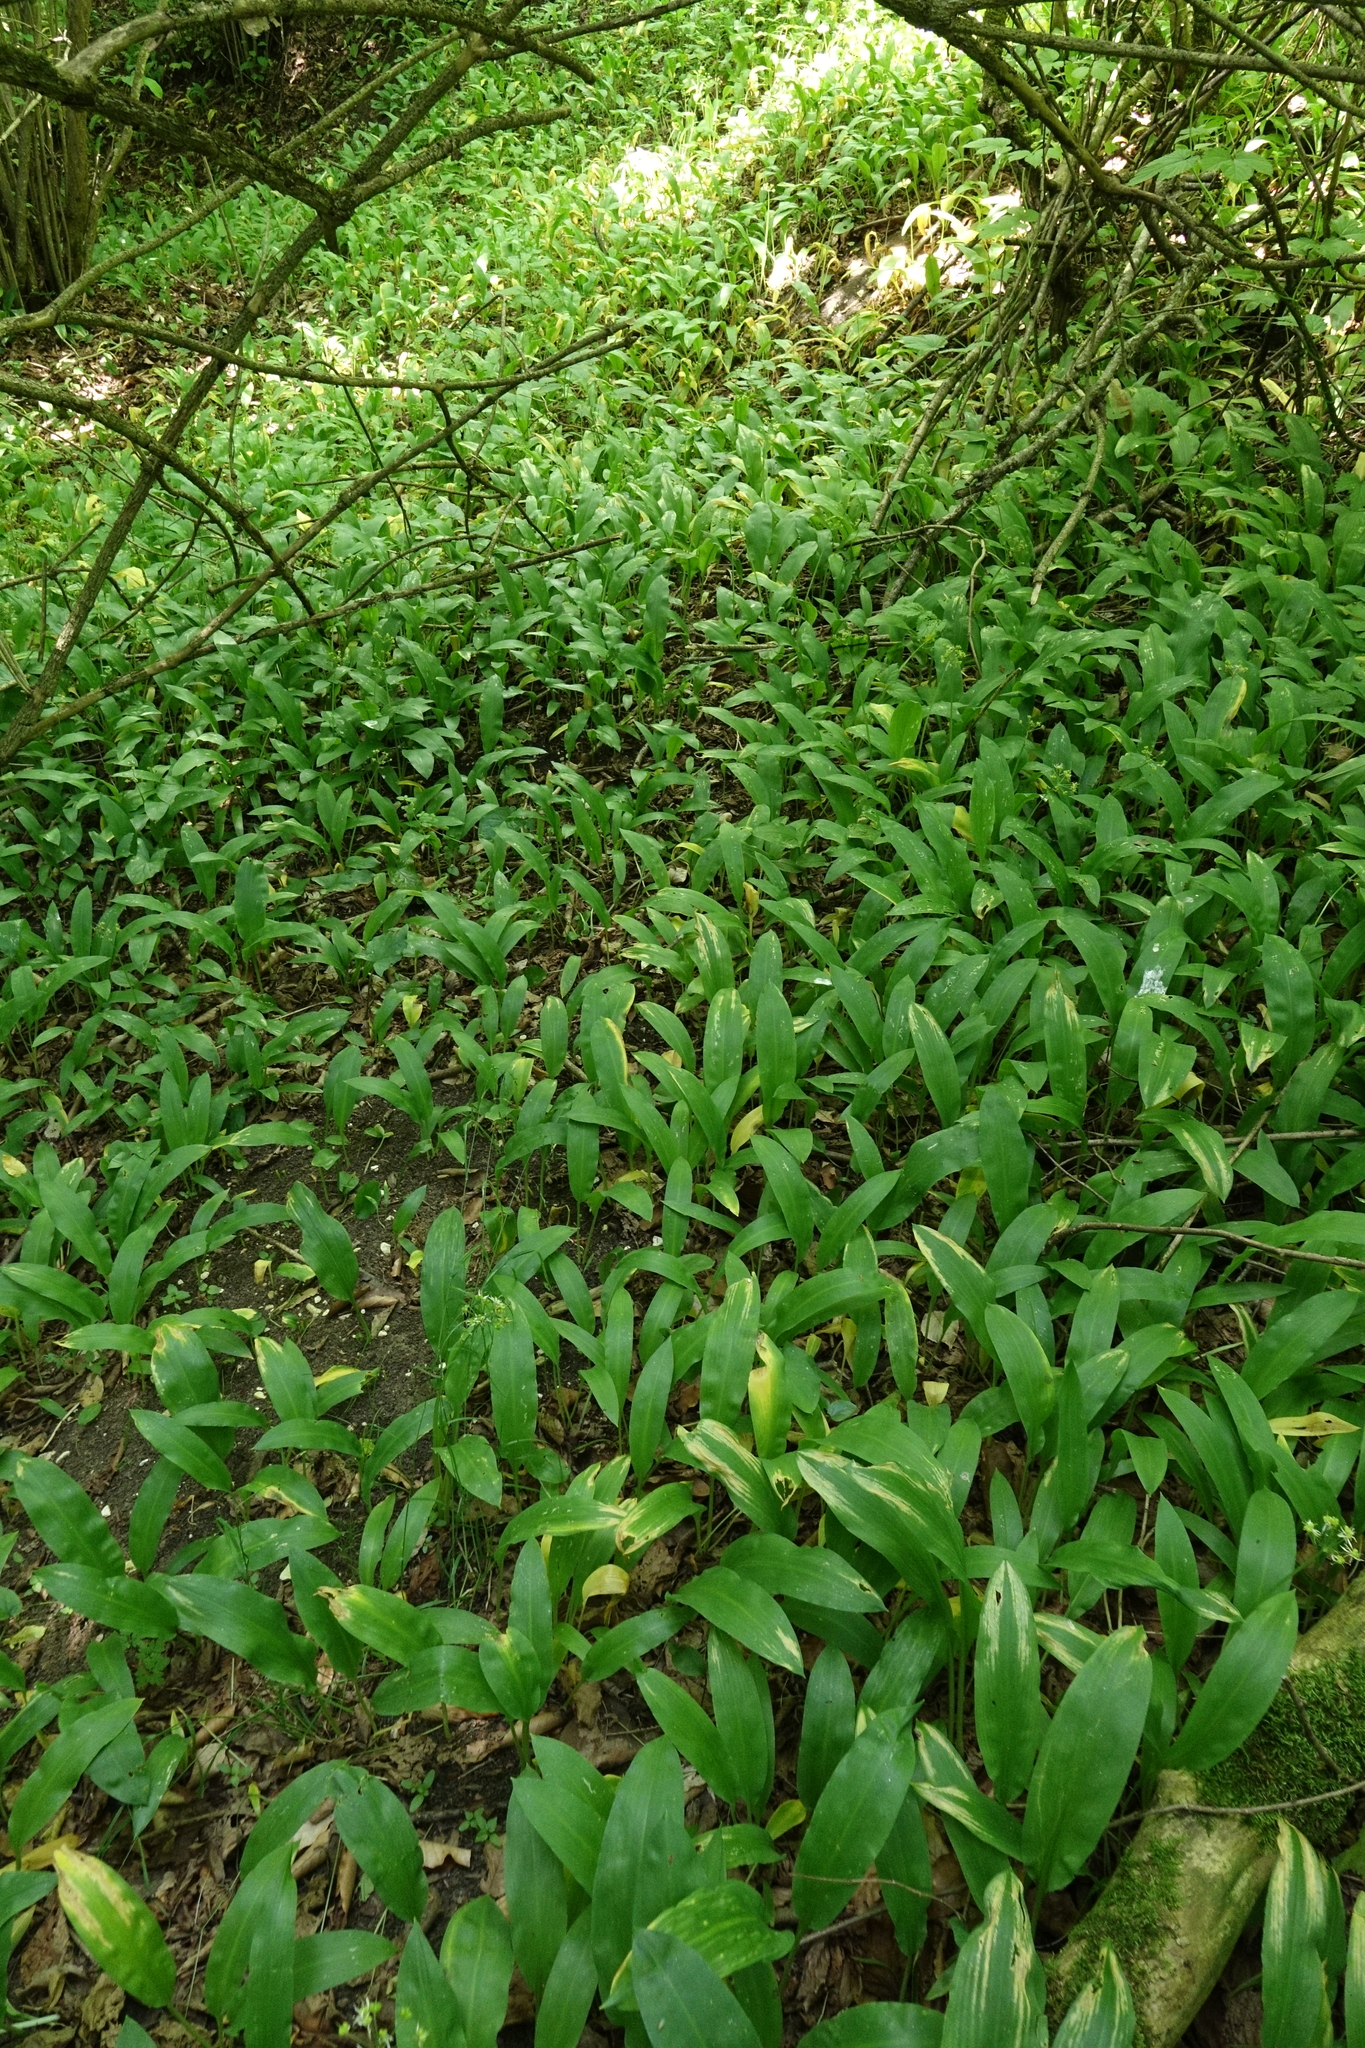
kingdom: Plantae
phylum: Tracheophyta
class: Liliopsida
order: Asparagales
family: Amaryllidaceae
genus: Allium
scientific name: Allium ursinum
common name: Ramsons
